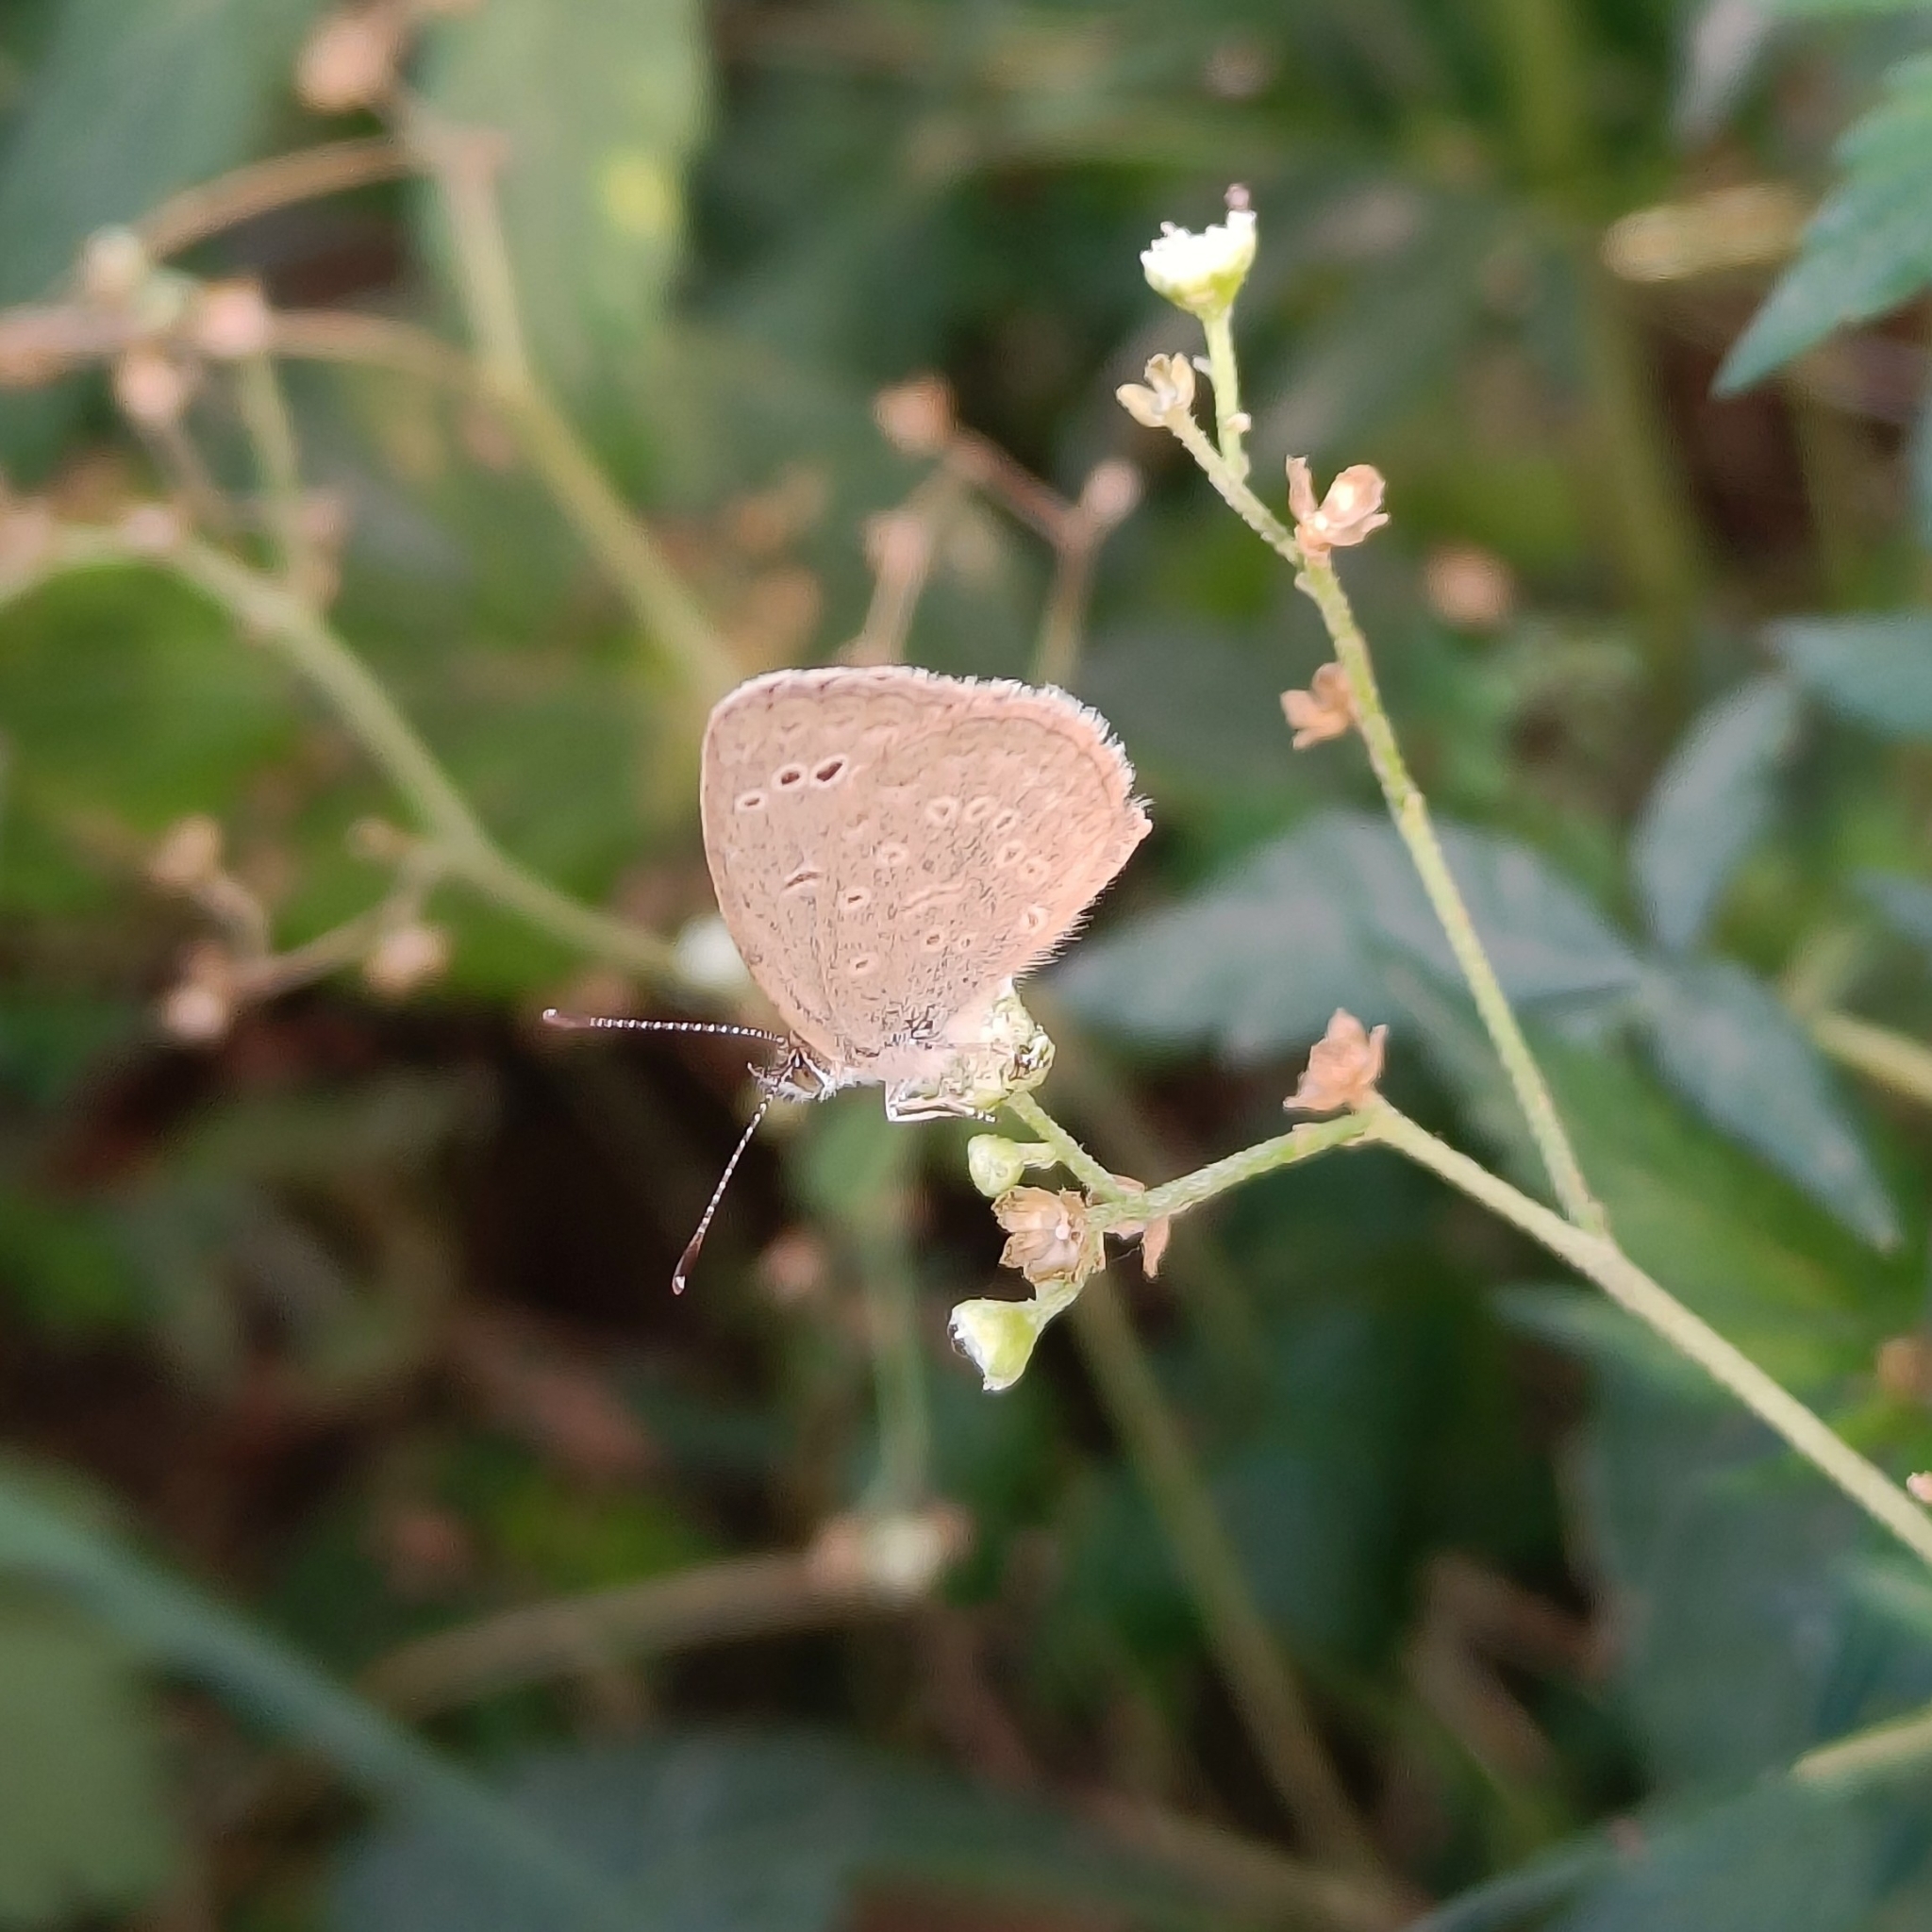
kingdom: Animalia
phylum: Arthropoda
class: Insecta
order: Lepidoptera
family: Lycaenidae
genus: Pseudozizeeria
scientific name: Pseudozizeeria maha
